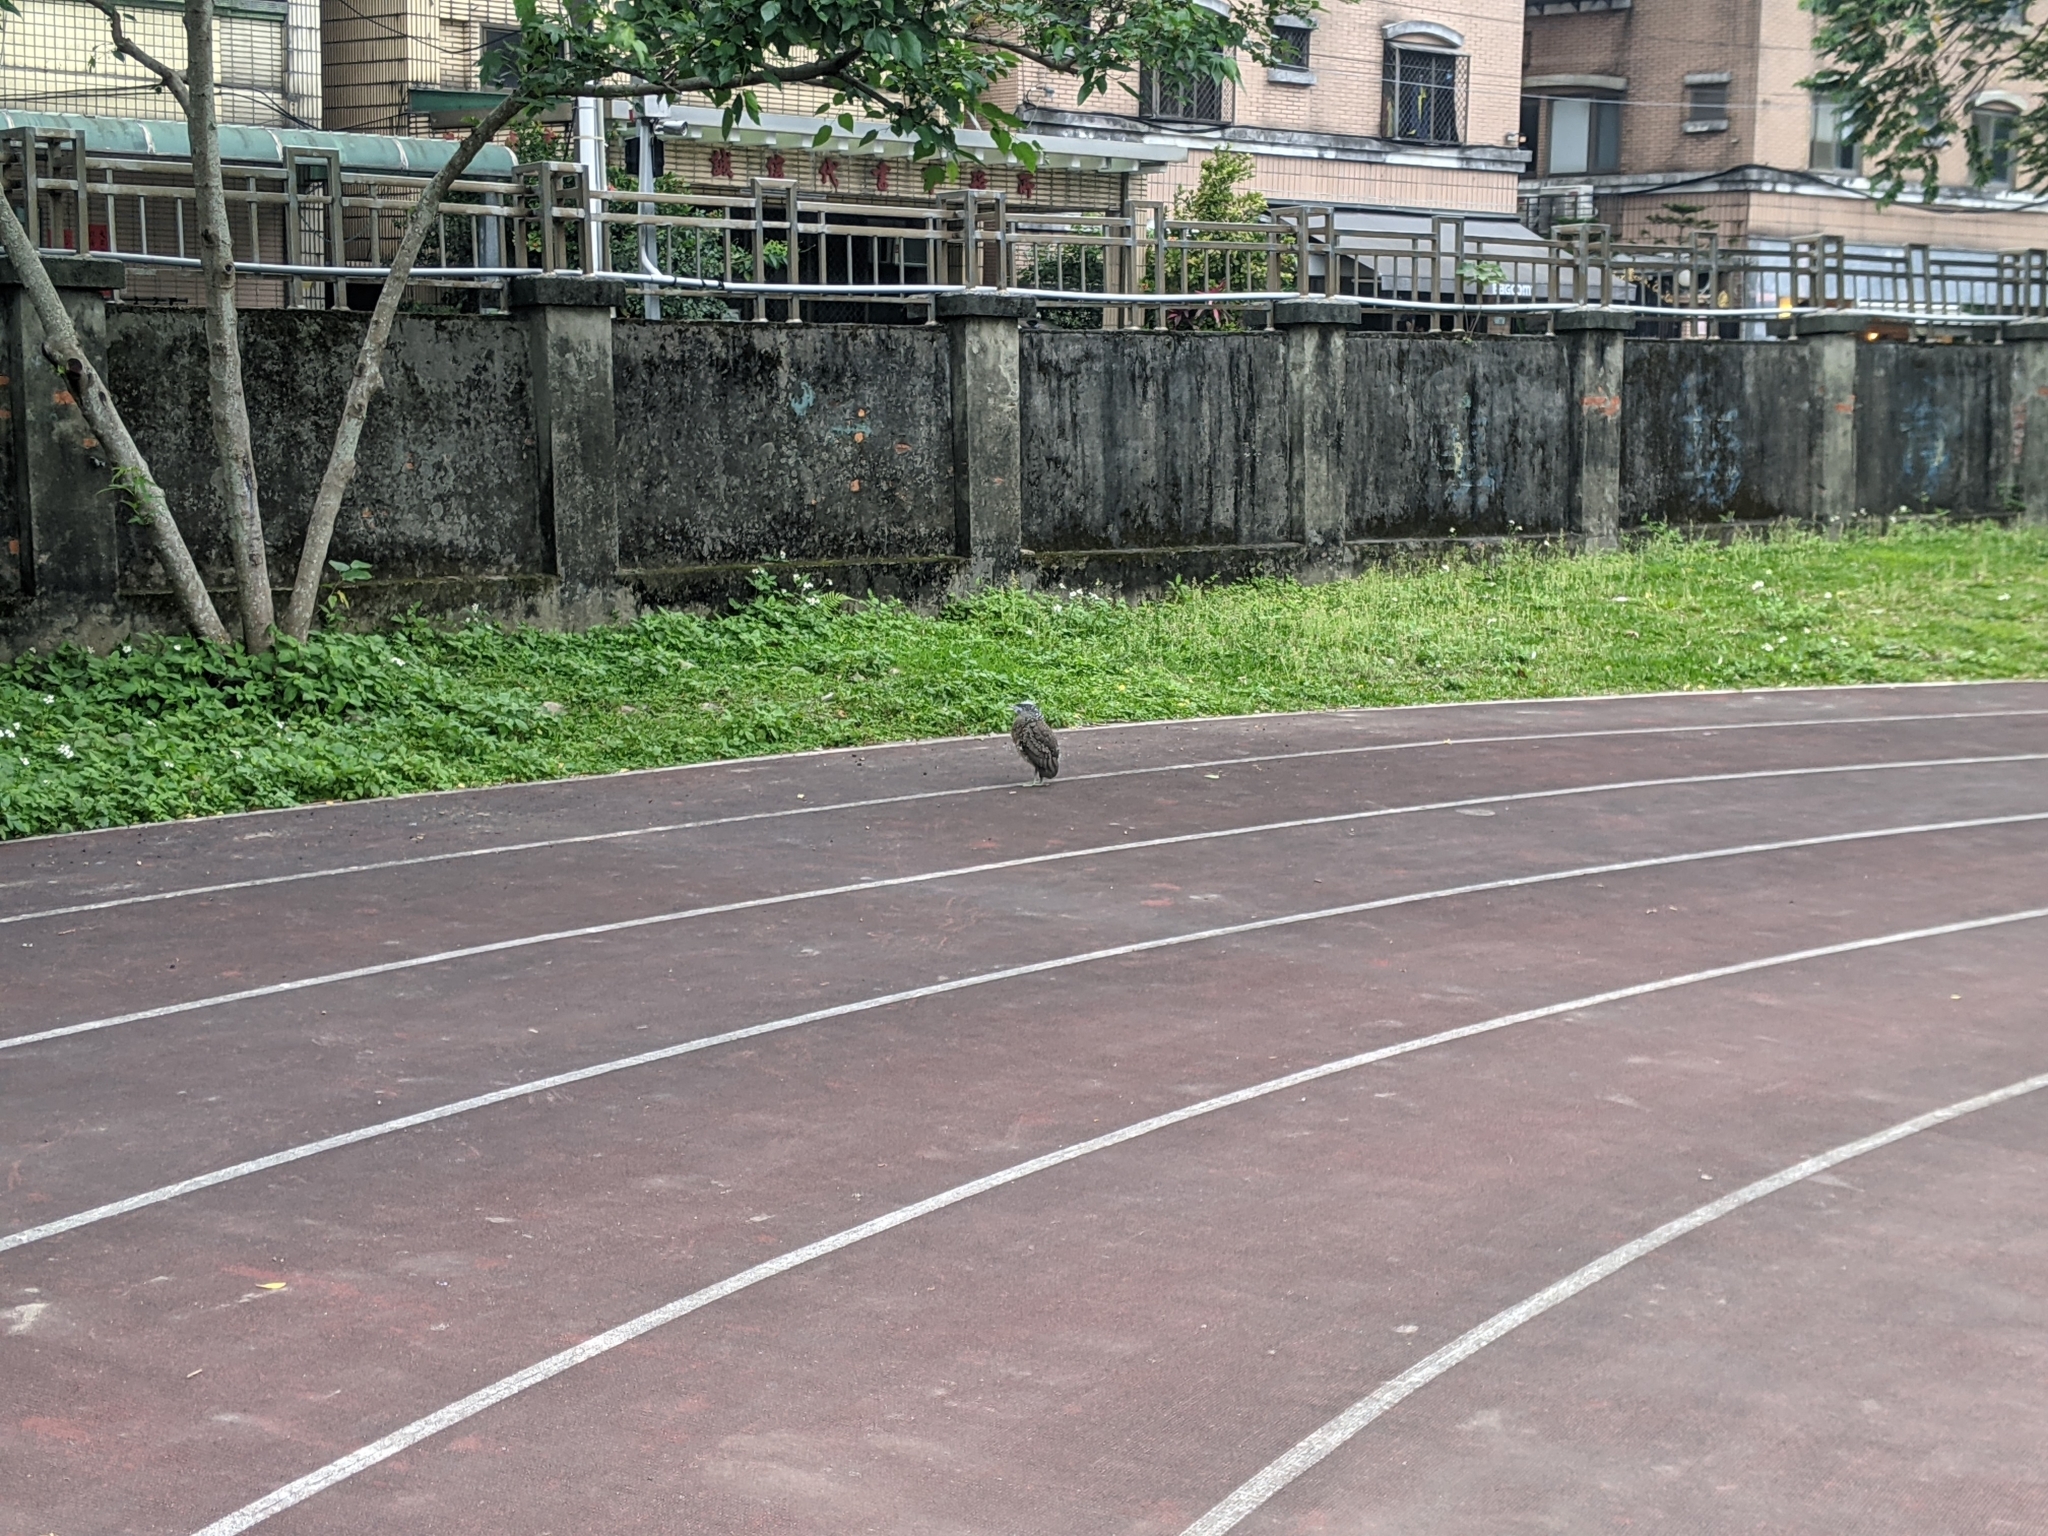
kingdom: Animalia
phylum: Chordata
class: Aves
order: Pelecaniformes
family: Ardeidae
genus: Gorsachius
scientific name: Gorsachius melanolophus
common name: Malayan night heron
